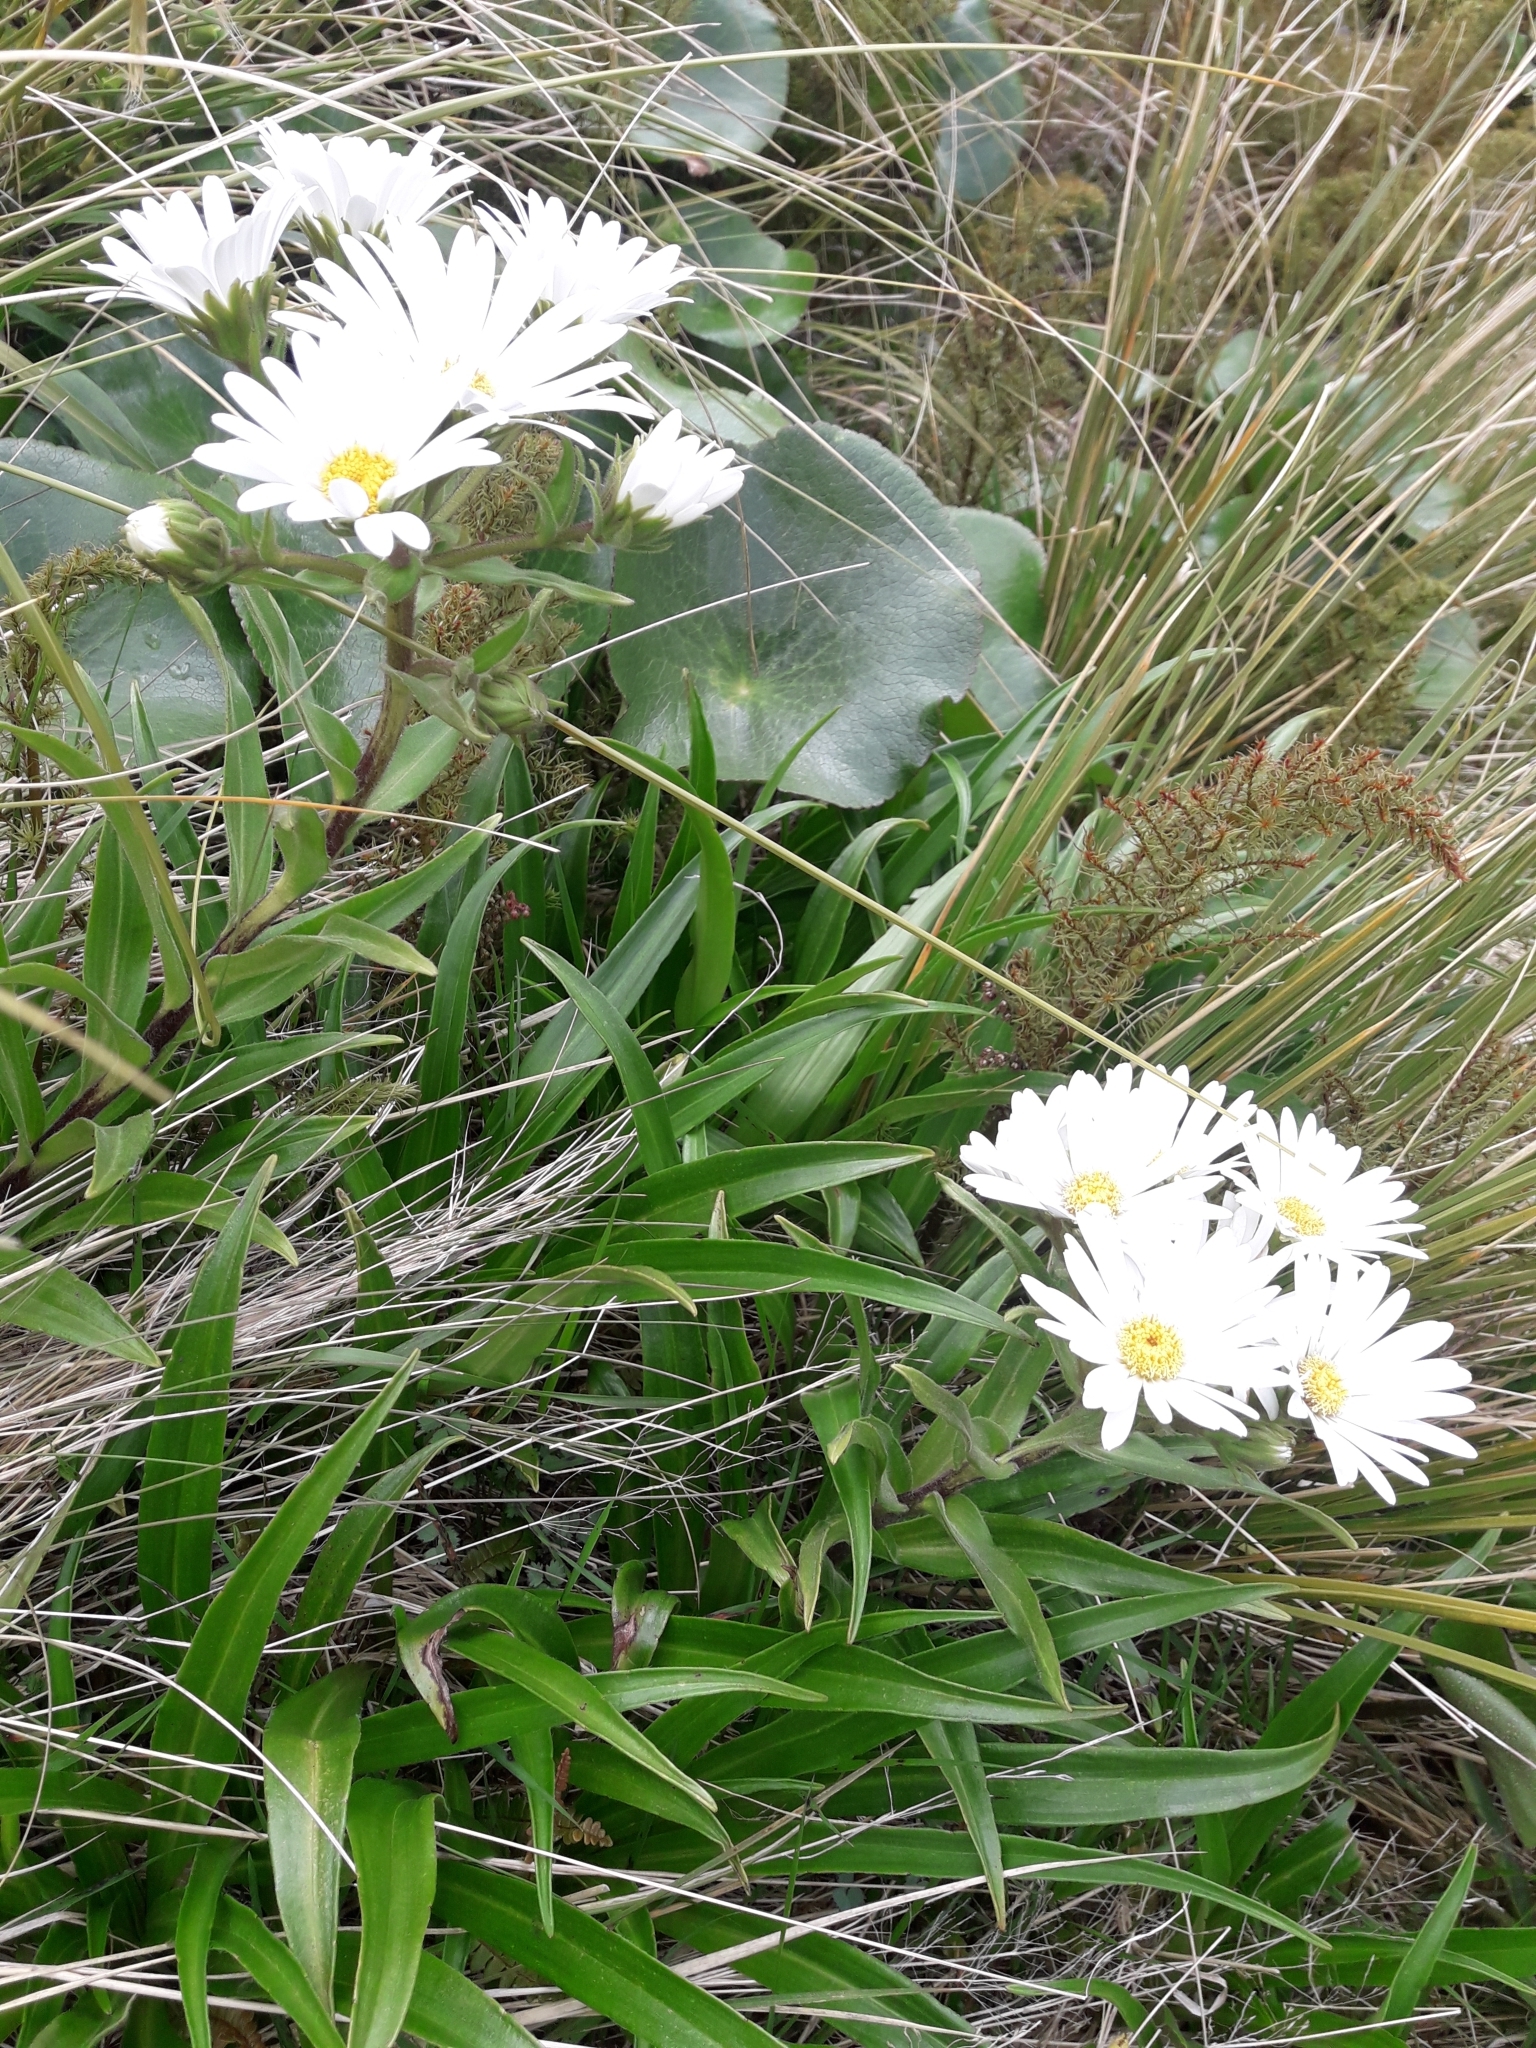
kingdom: Plantae
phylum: Tracheophyta
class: Magnoliopsida
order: Asterales
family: Asteraceae
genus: Dolichoglottis
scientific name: Dolichoglottis scorzoneroides
